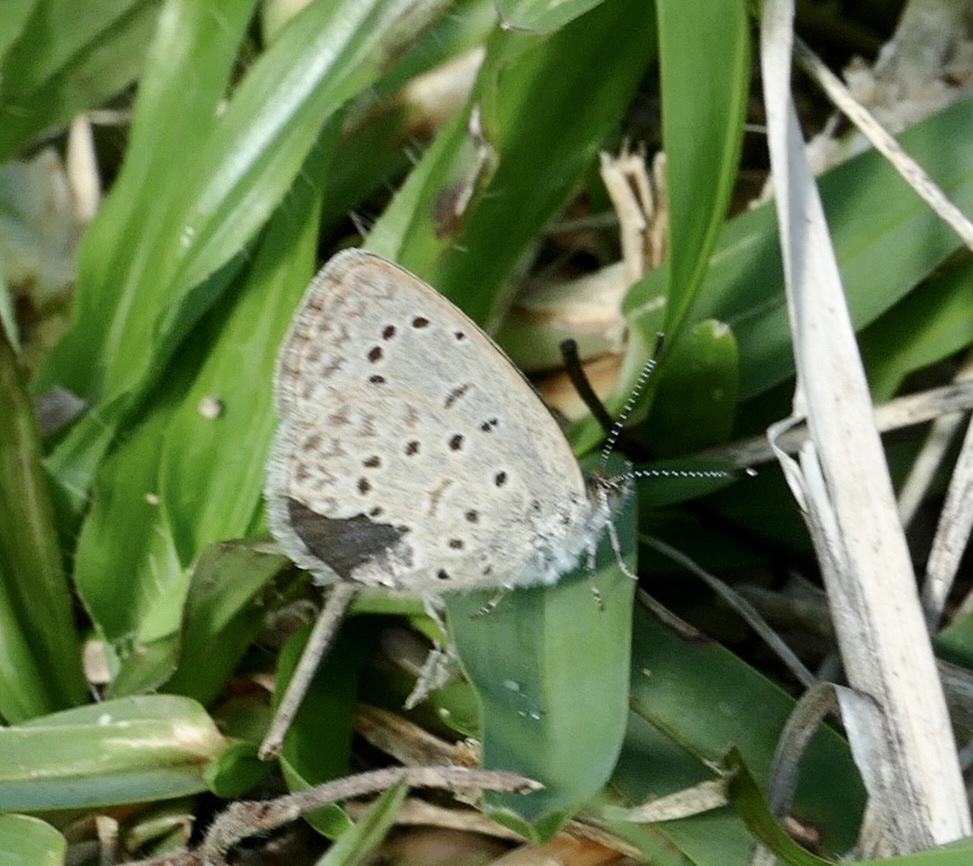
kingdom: Animalia
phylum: Arthropoda
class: Insecta
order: Lepidoptera
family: Lycaenidae
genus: Zizeeria
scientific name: Zizeeria knysna
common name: African grass blue
